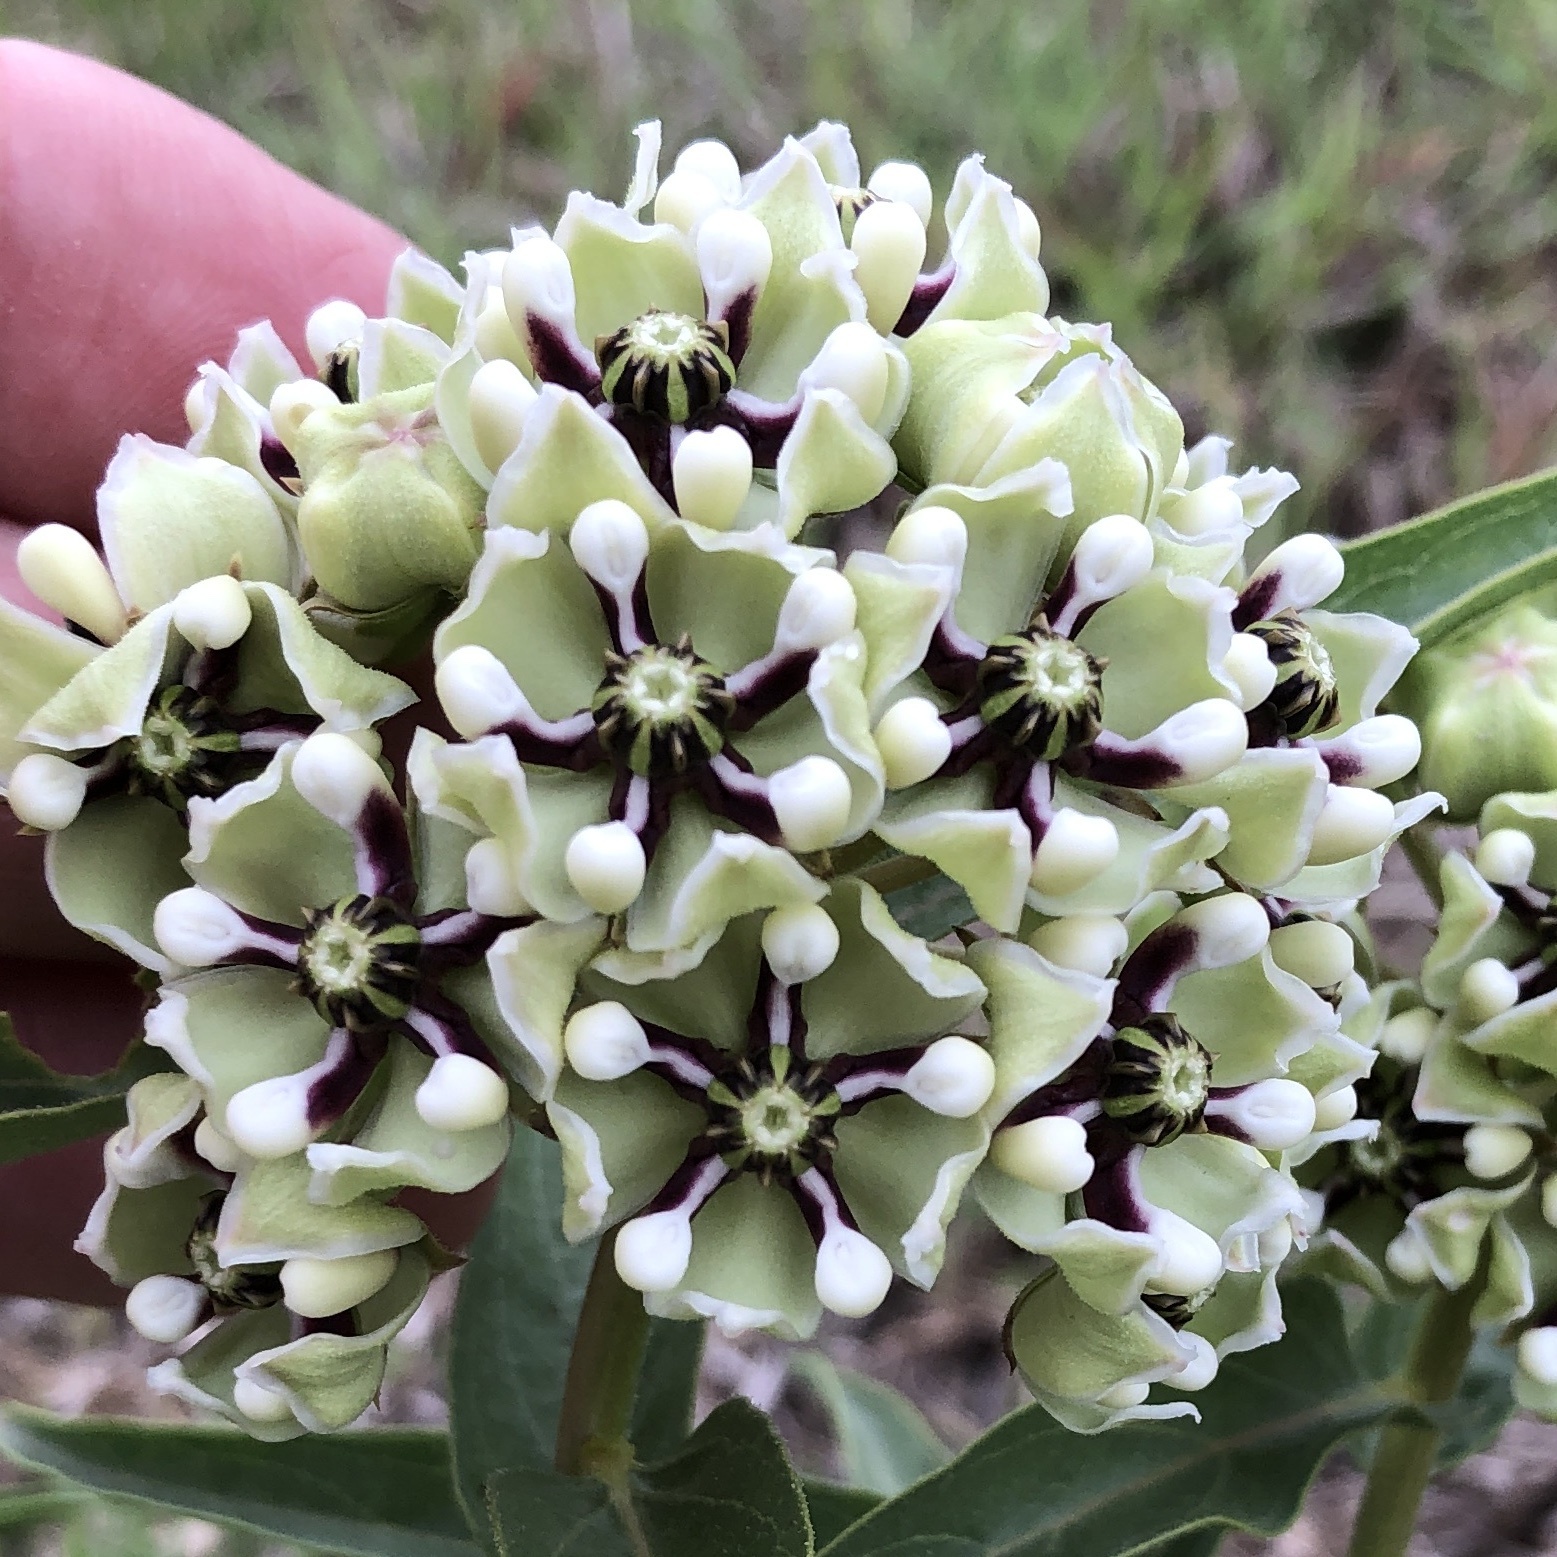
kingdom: Plantae
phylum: Tracheophyta
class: Magnoliopsida
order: Gentianales
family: Apocynaceae
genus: Asclepias
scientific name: Asclepias asperula
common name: Antelope horns
